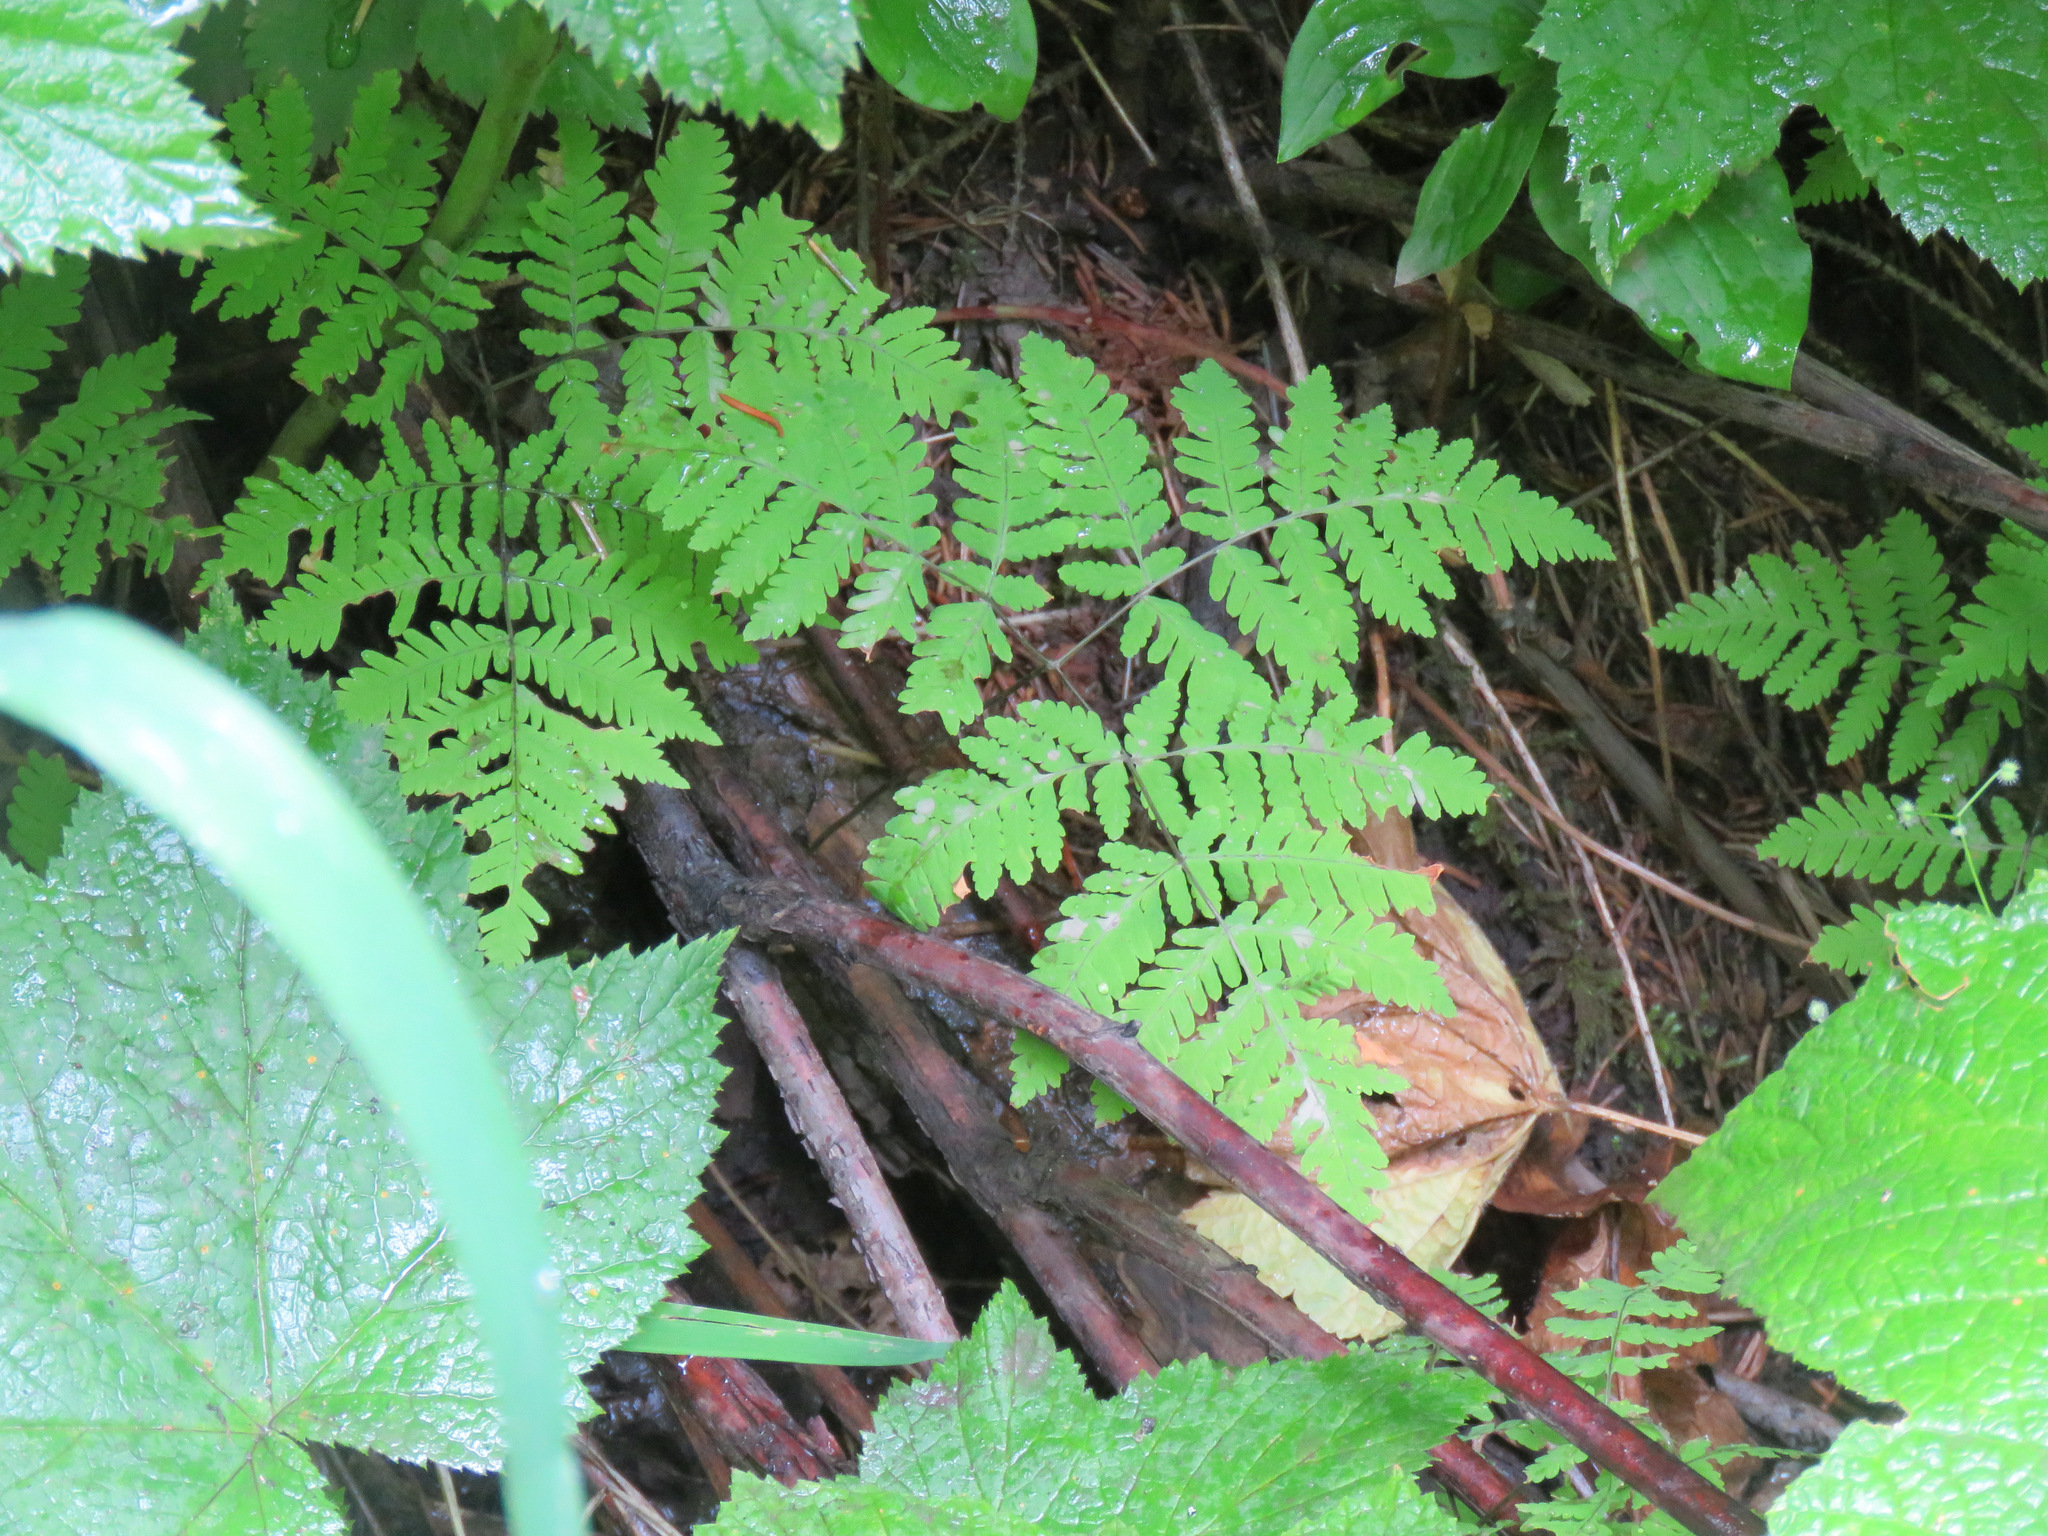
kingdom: Plantae
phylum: Tracheophyta
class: Polypodiopsida
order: Polypodiales
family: Cystopteridaceae
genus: Gymnocarpium
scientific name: Gymnocarpium dryopteris
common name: Oak fern
